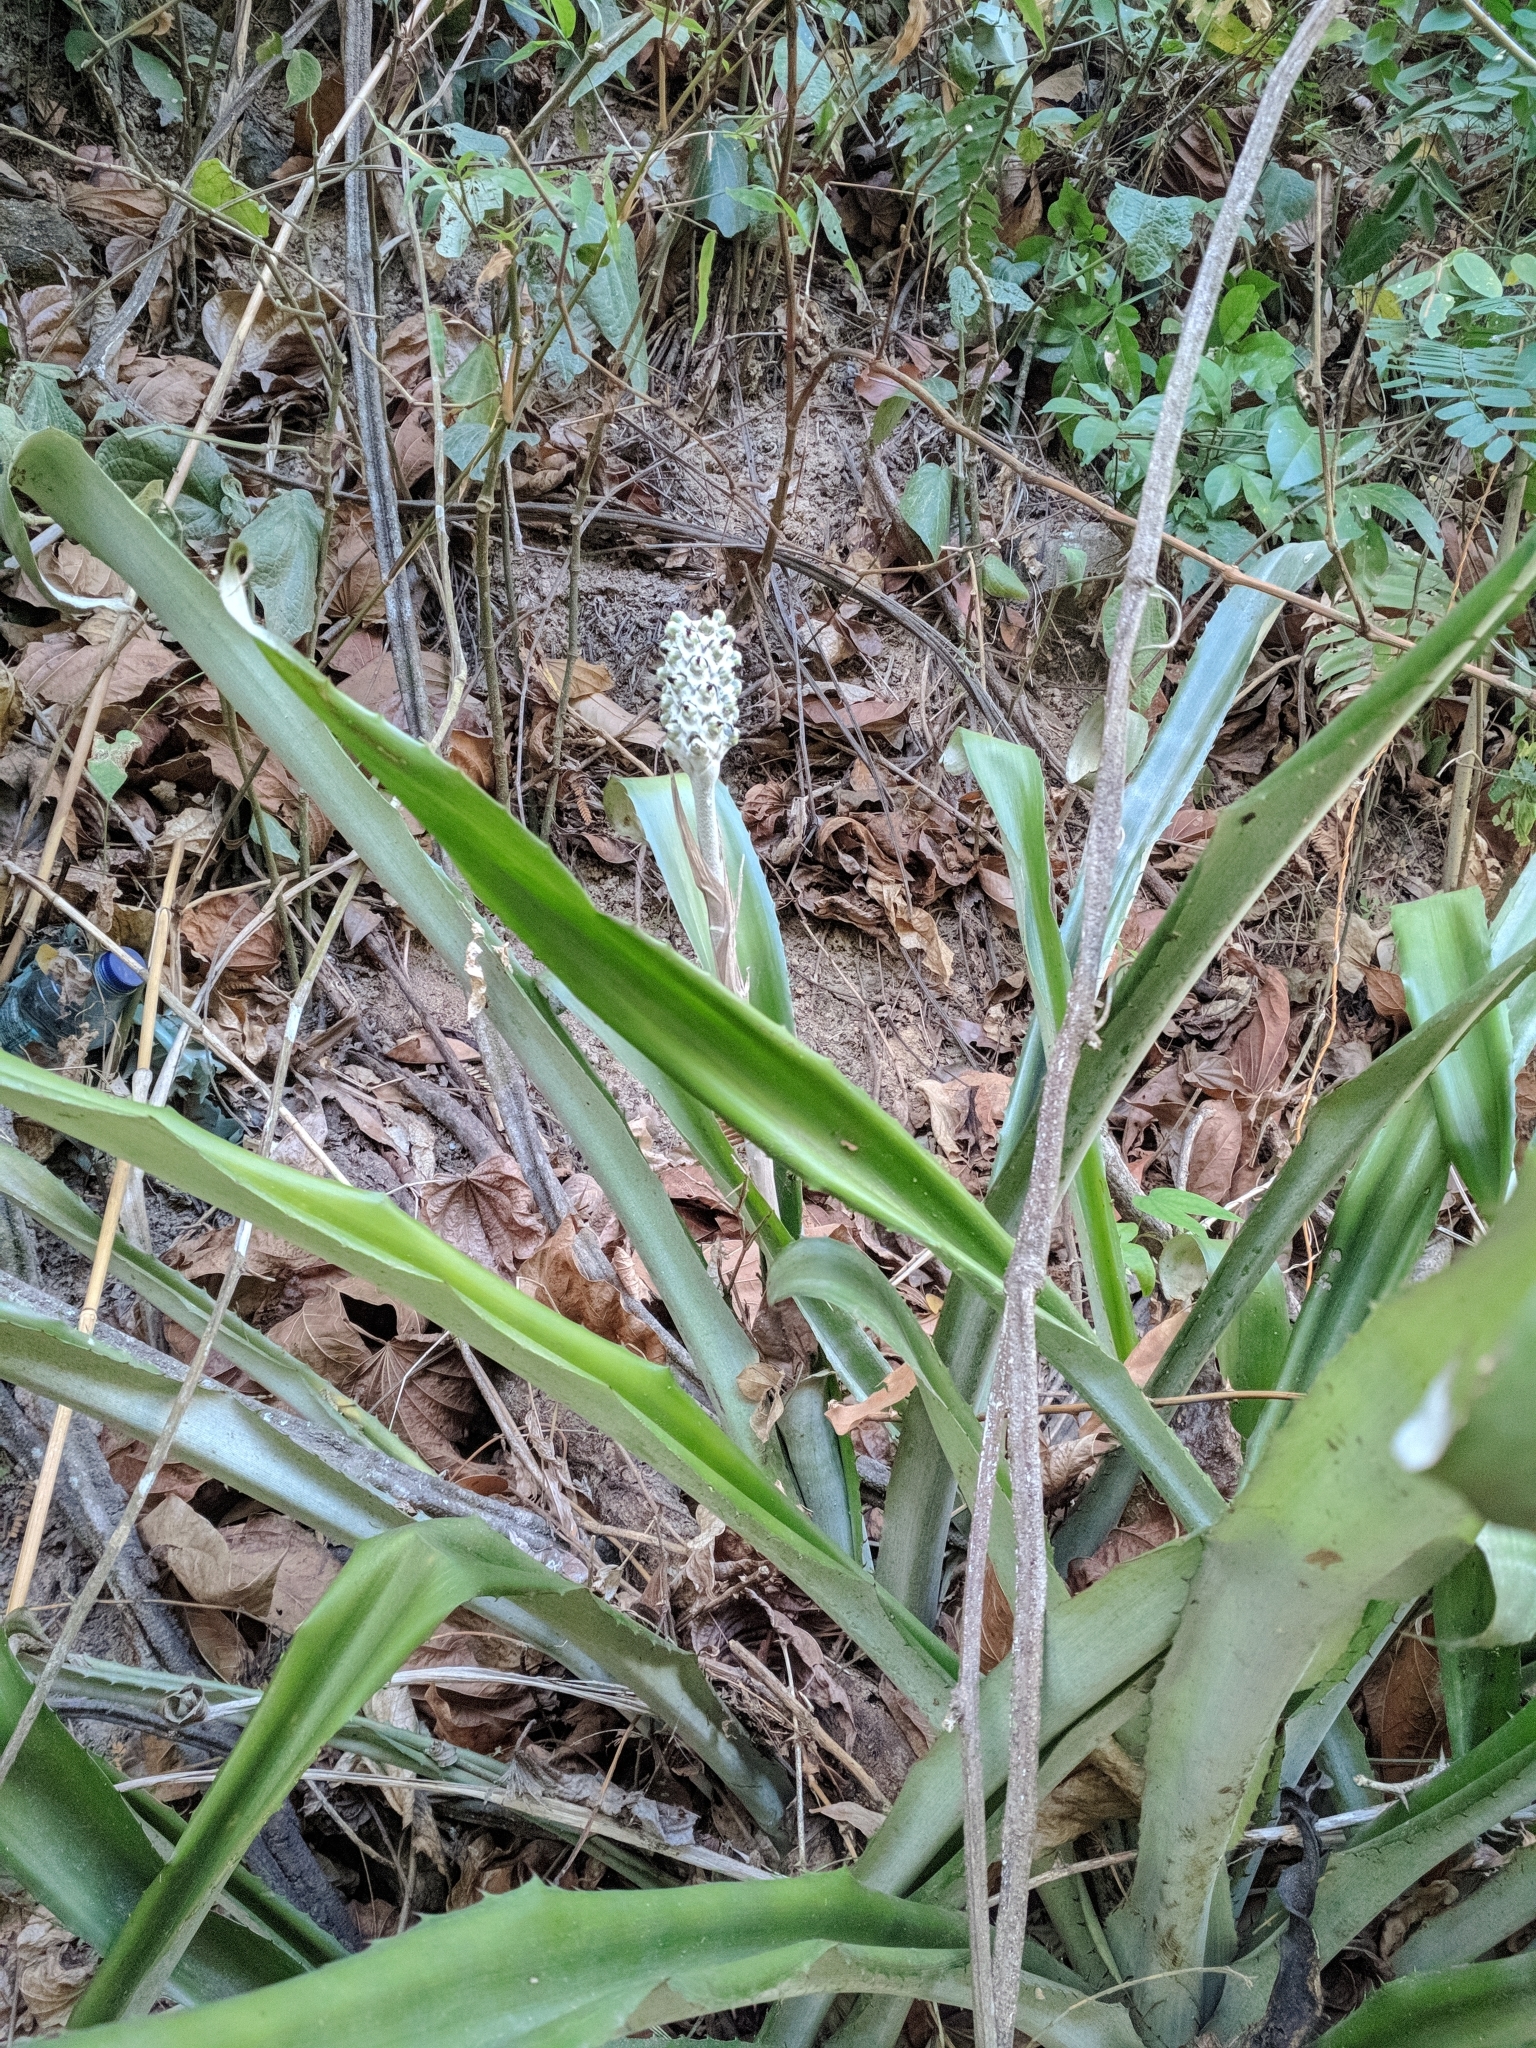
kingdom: Plantae
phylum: Tracheophyta
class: Liliopsida
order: Poales
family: Bromeliaceae
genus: Aechmea
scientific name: Aechmea bromeliifolia
